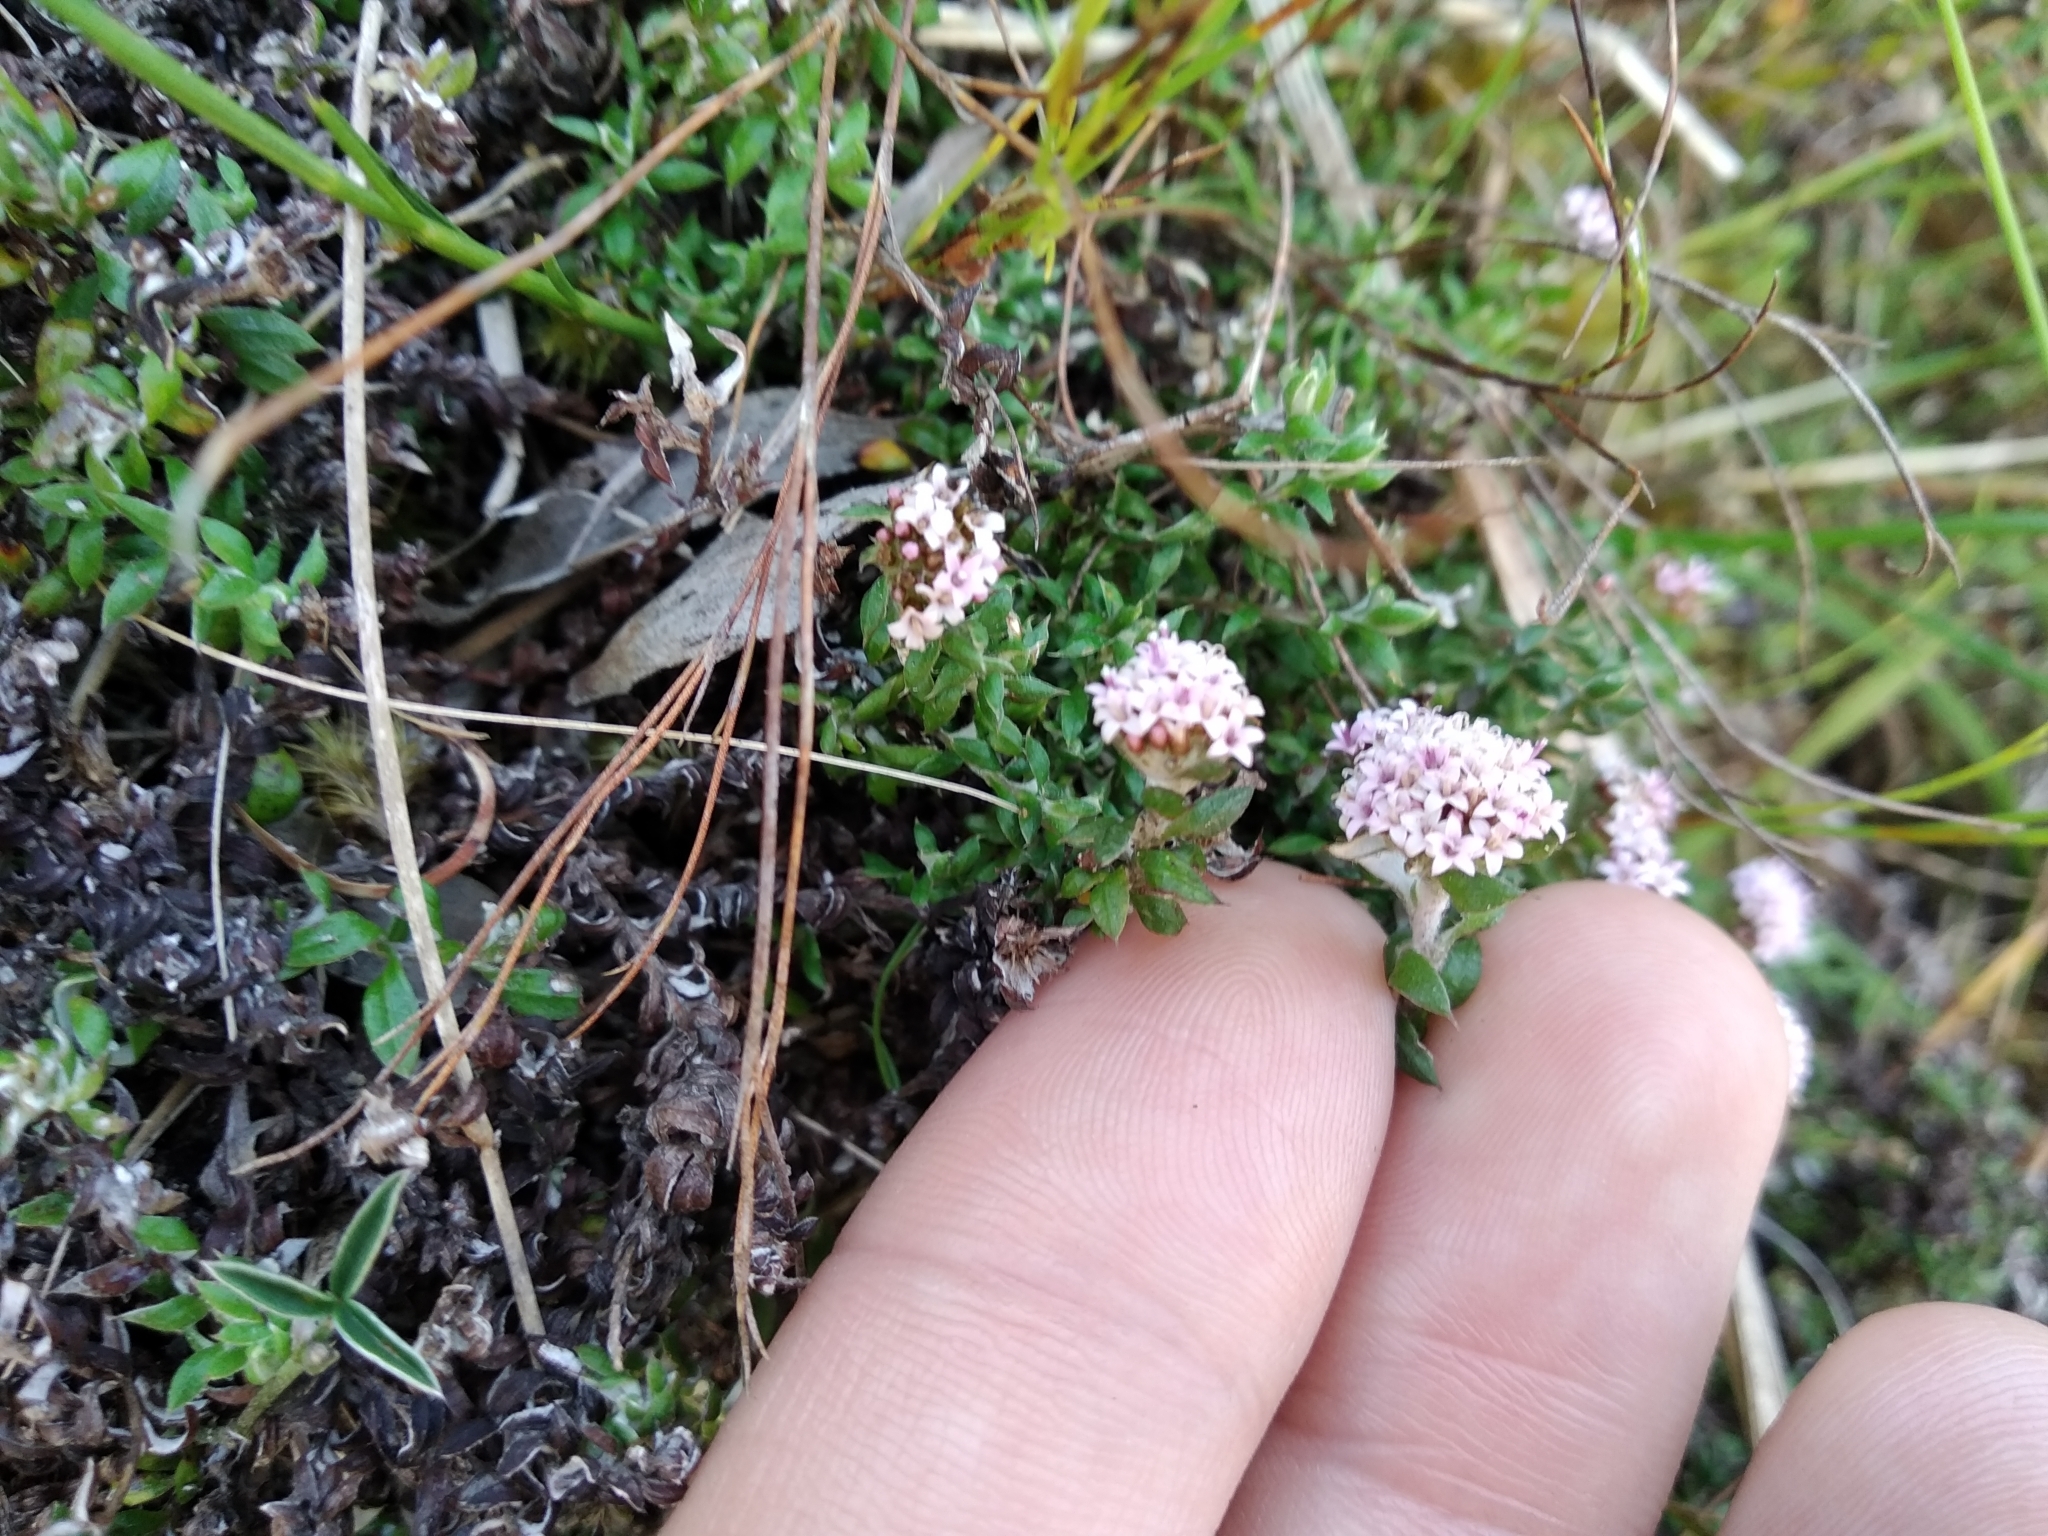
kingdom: Plantae
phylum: Tracheophyta
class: Magnoliopsida
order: Asterales
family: Asteraceae
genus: Stoebe
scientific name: Stoebe prostrata
